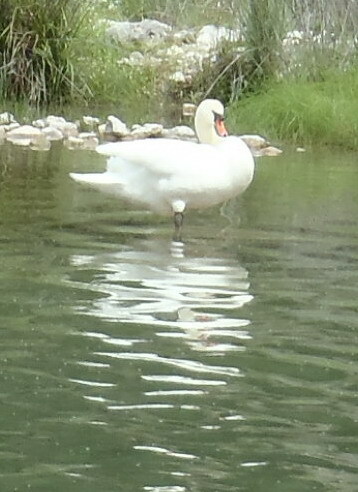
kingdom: Animalia
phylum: Chordata
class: Aves
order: Anseriformes
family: Anatidae
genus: Cygnus
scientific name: Cygnus olor
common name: Mute swan
